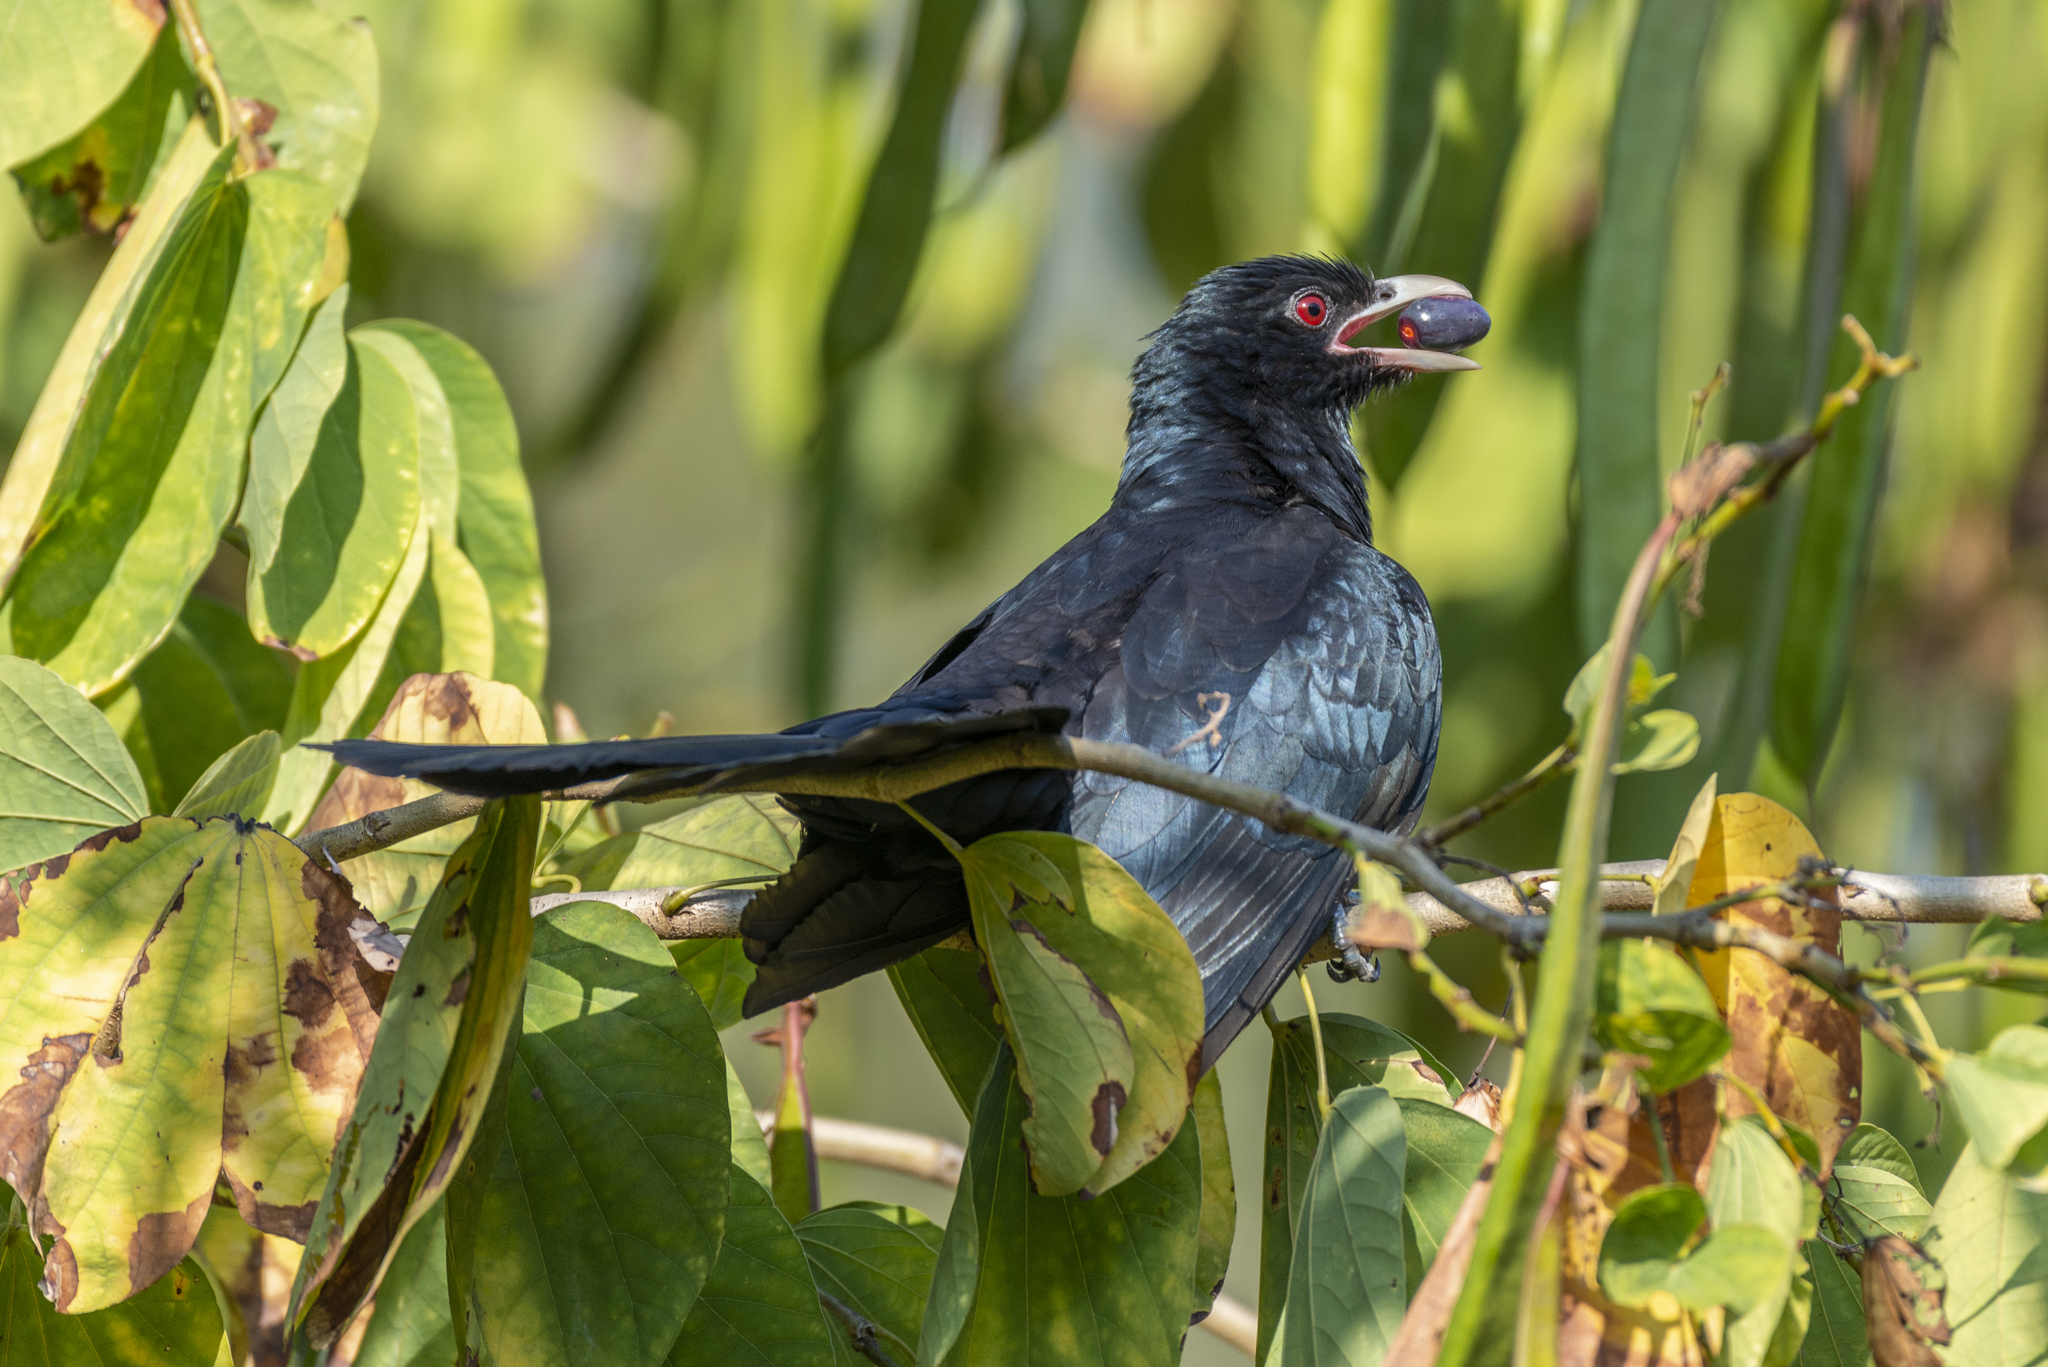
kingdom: Animalia
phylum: Chordata
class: Aves
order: Cuculiformes
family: Cuculidae
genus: Eudynamys
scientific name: Eudynamys scolopaceus
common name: Asian koel
